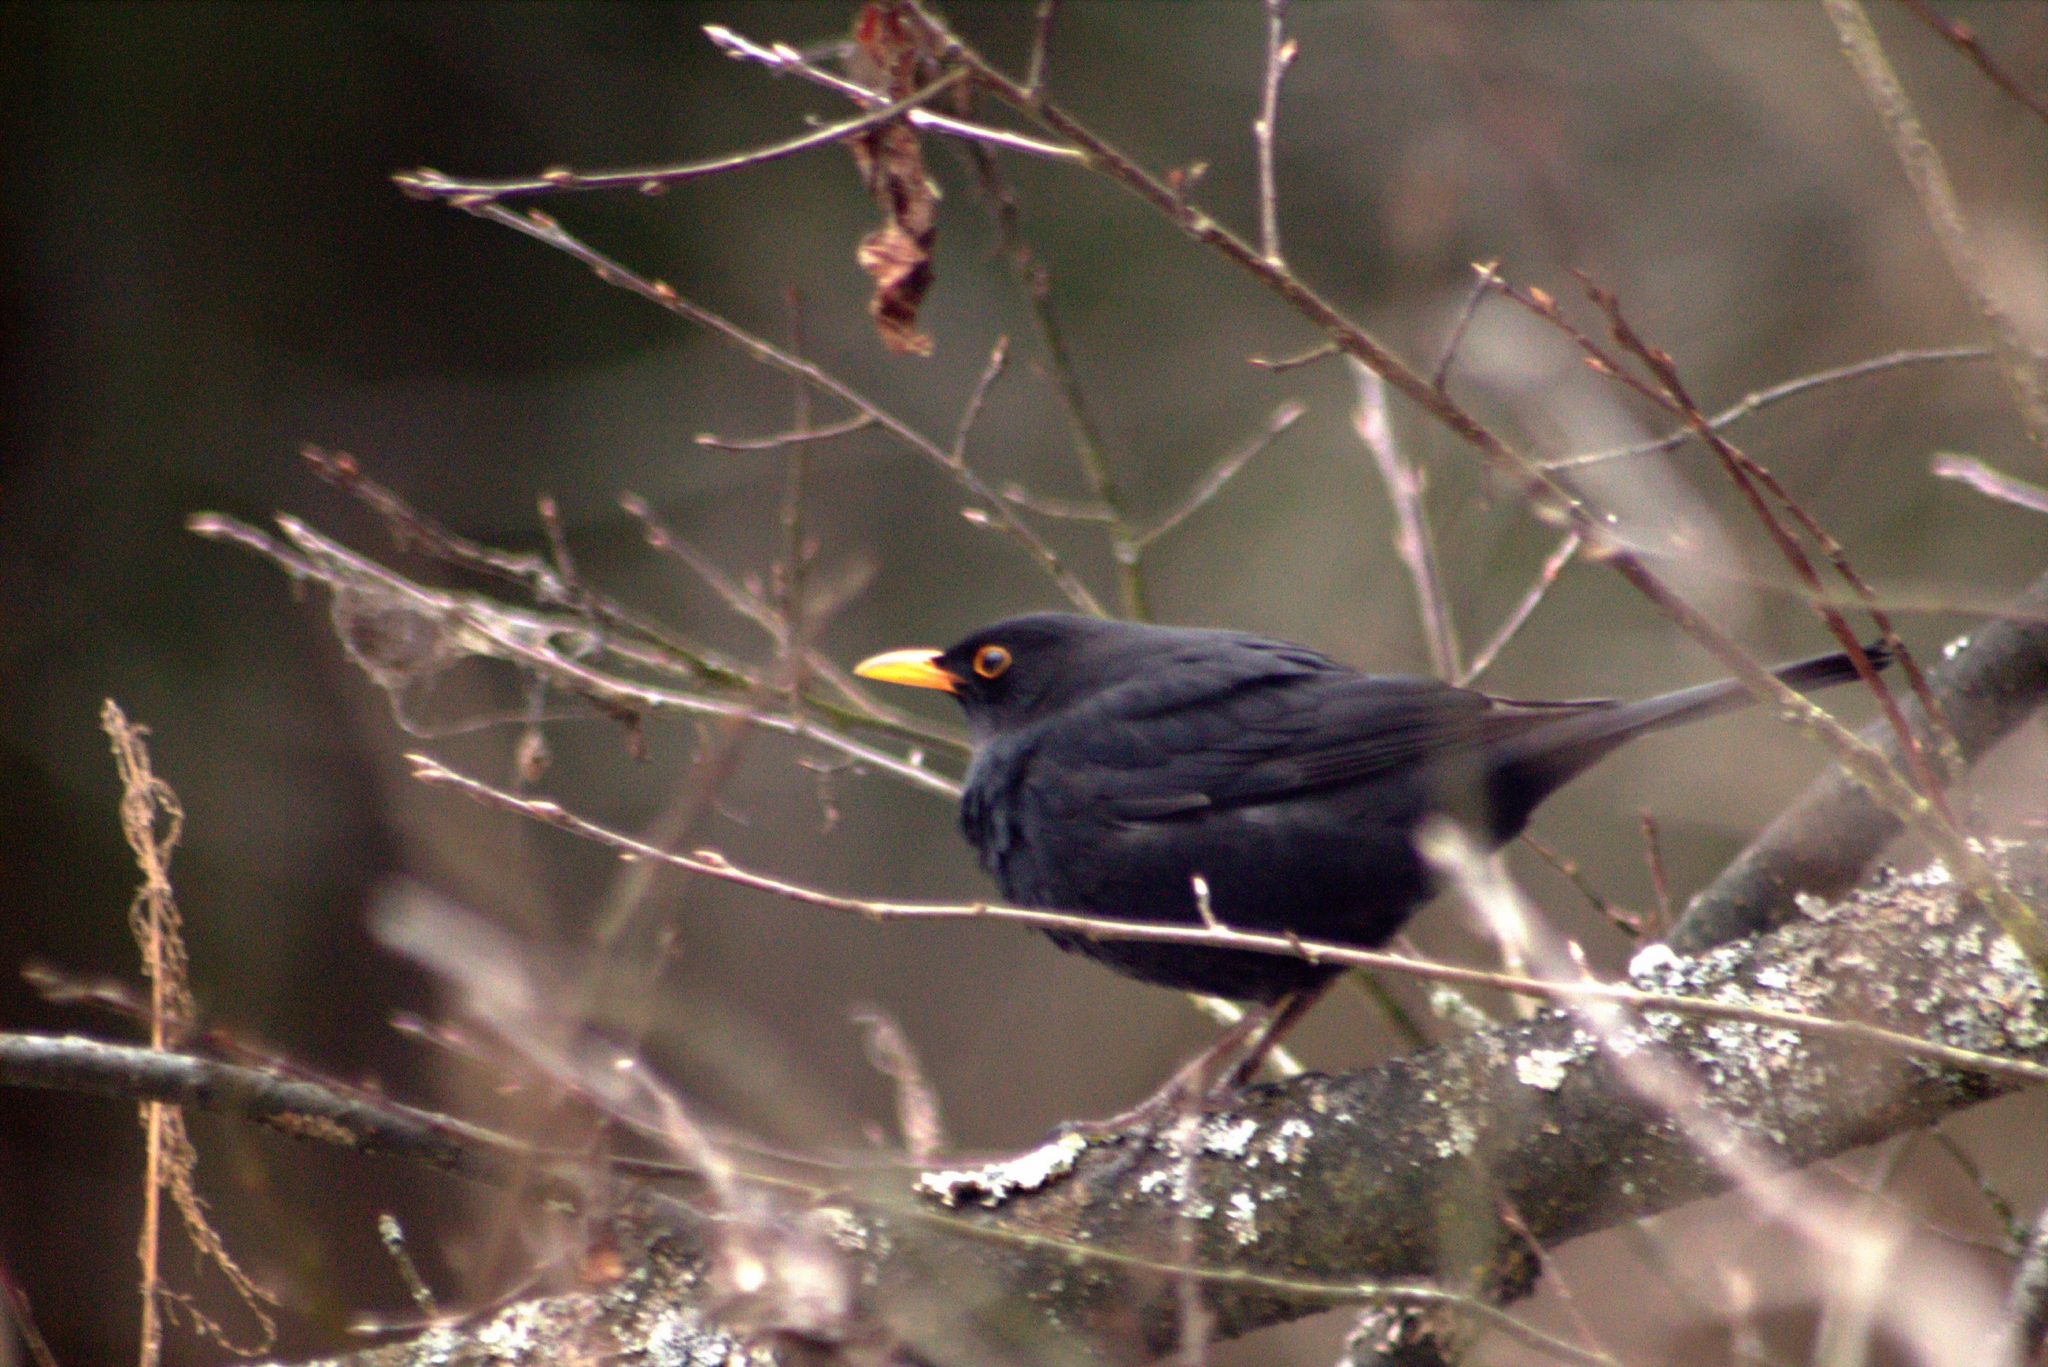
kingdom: Animalia
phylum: Chordata
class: Aves
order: Passeriformes
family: Turdidae
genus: Turdus
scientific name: Turdus merula
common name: Common blackbird
